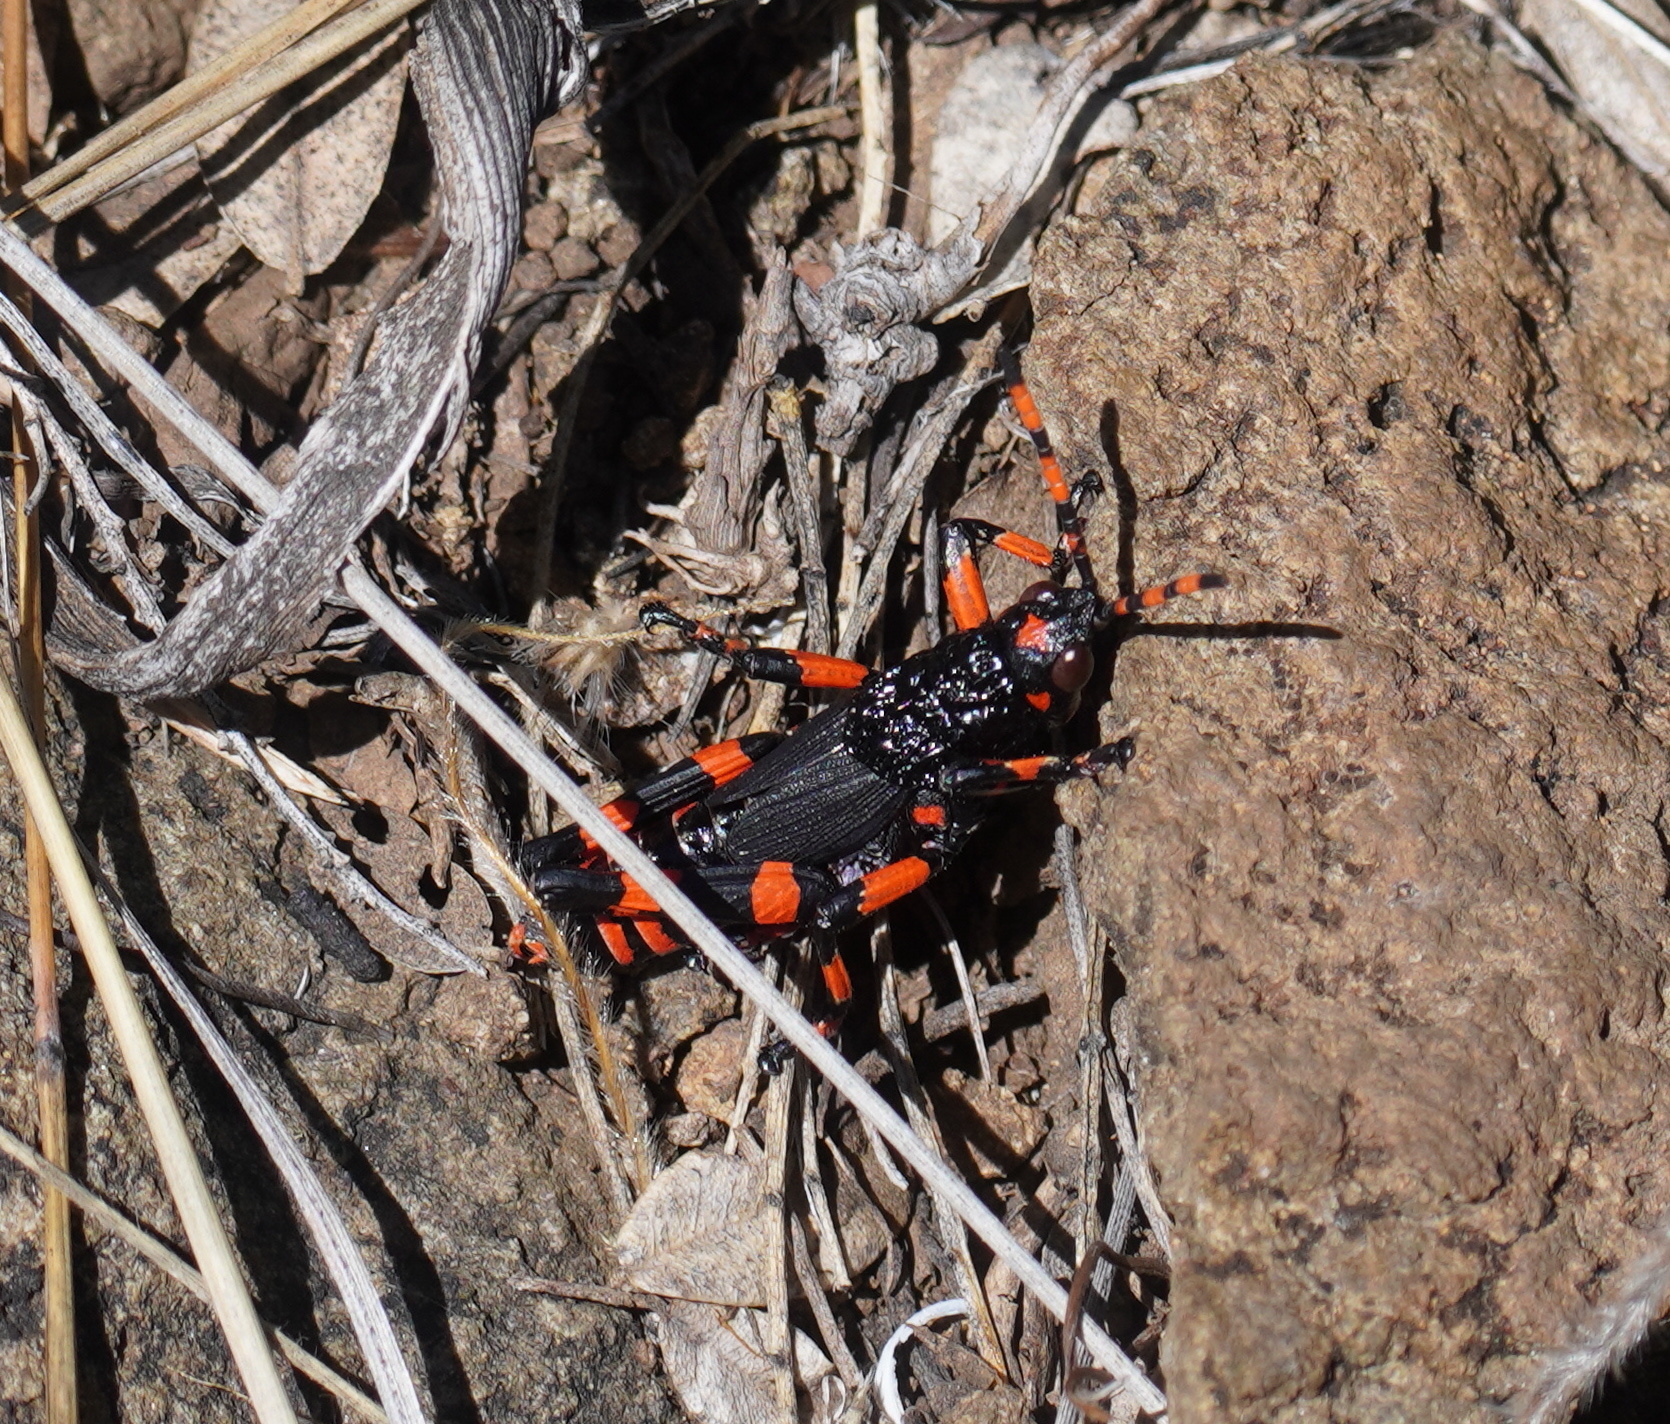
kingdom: Animalia
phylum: Arthropoda
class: Insecta
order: Orthoptera
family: Pyrgomorphidae
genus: Maura
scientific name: Maura rubroornata
